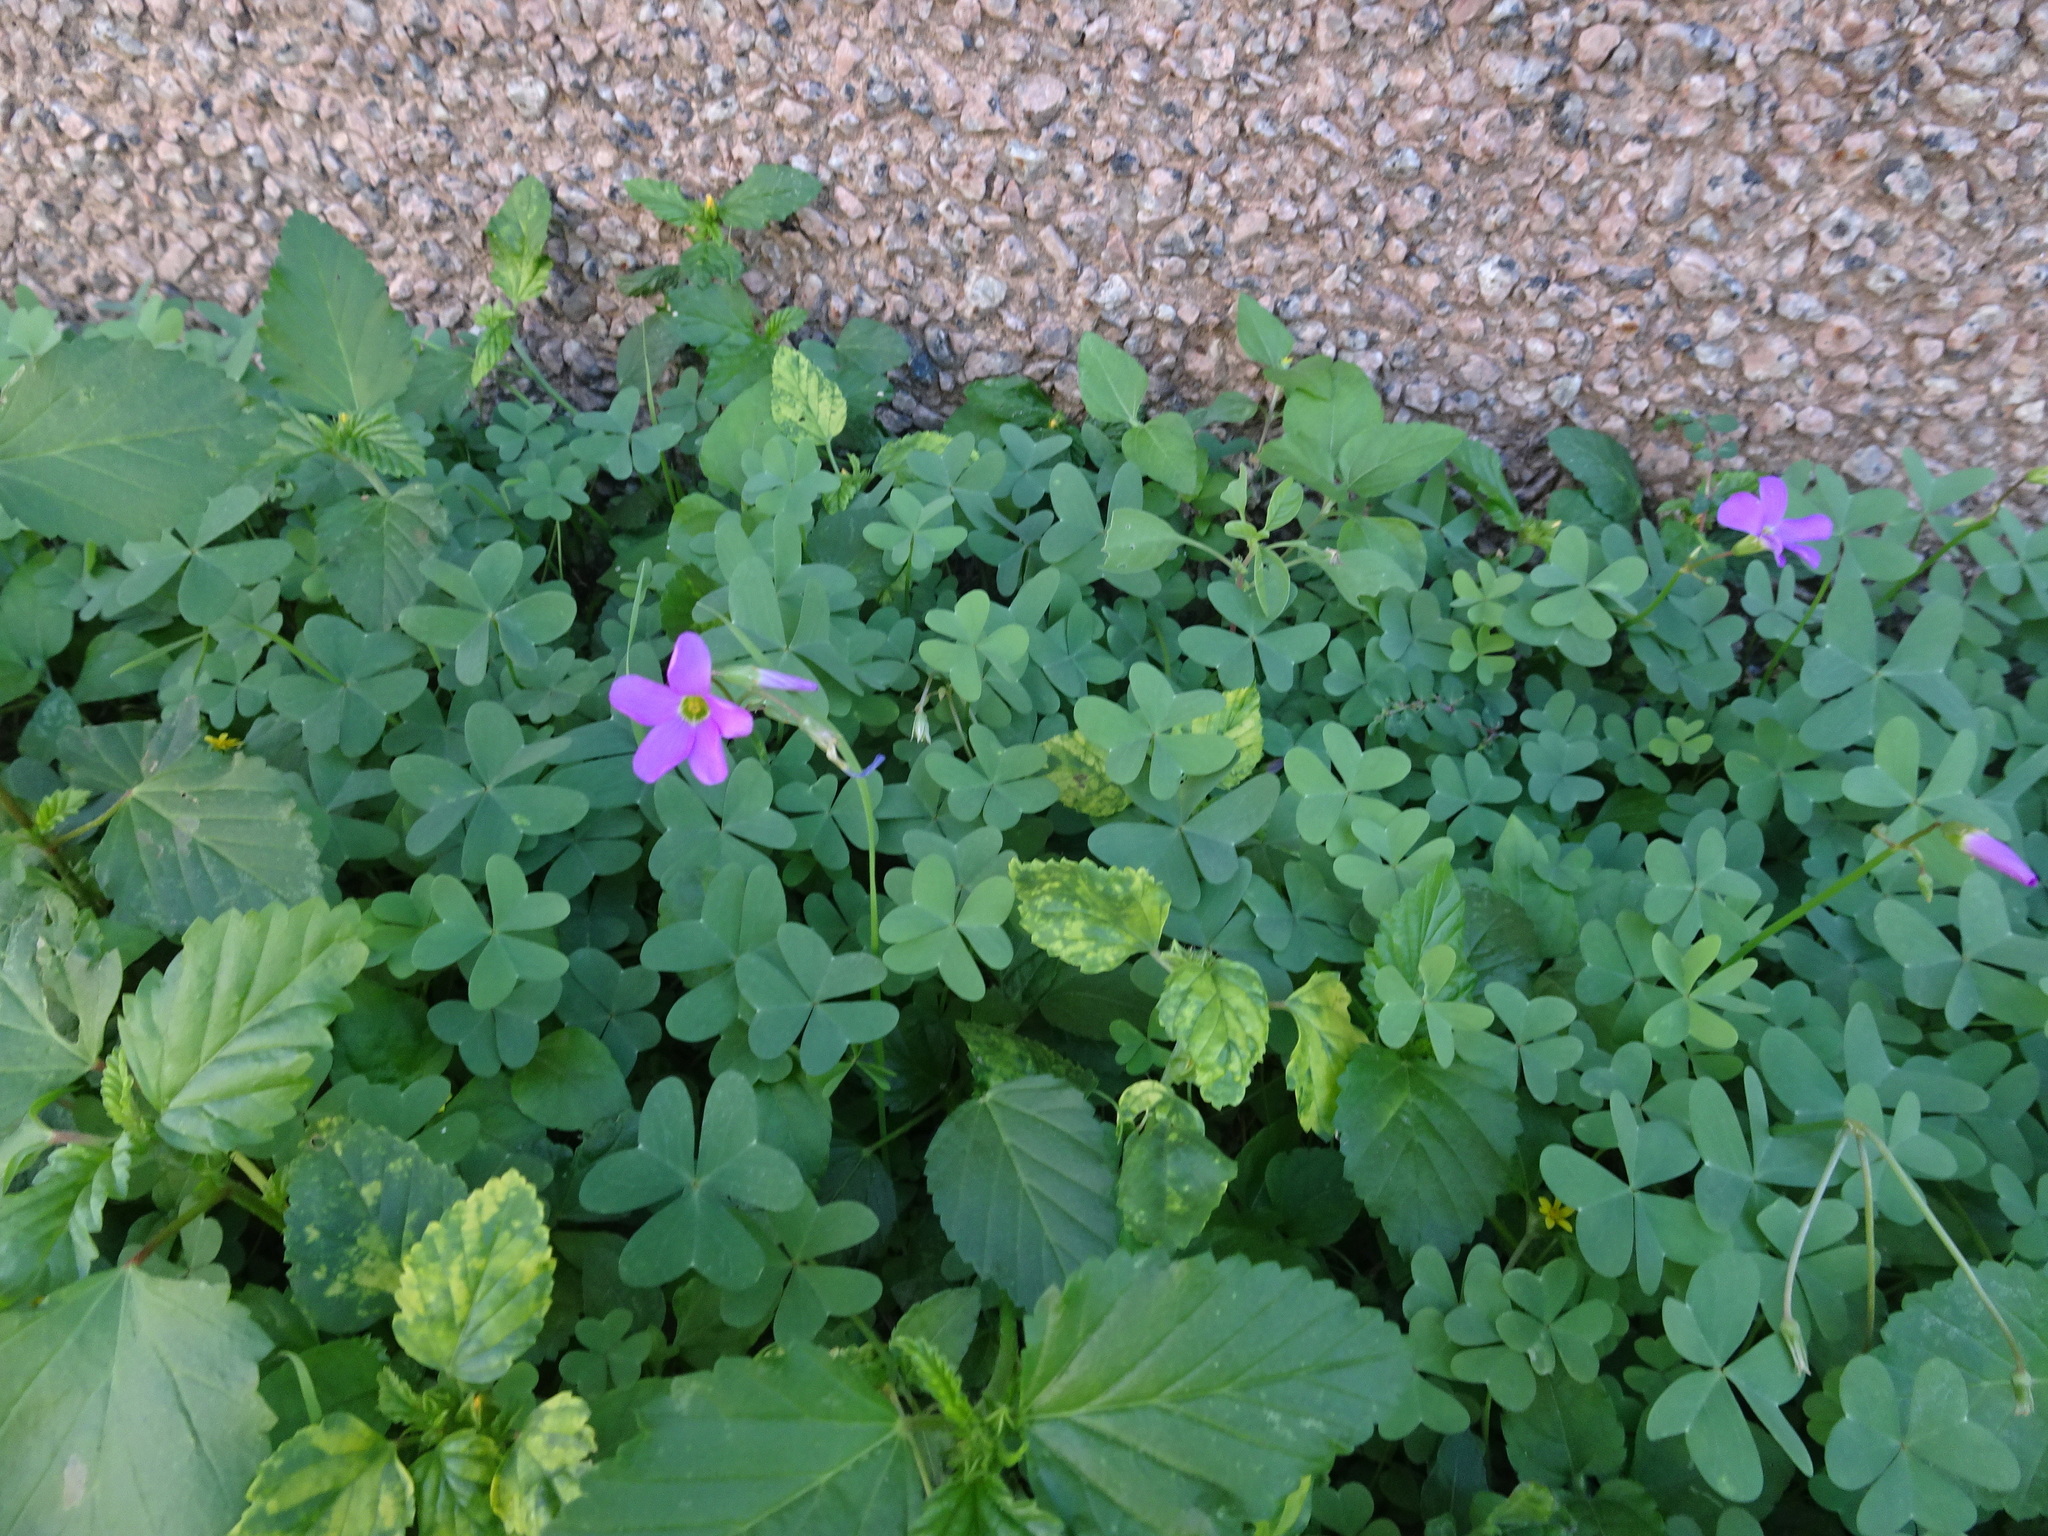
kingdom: Plantae
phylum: Tracheophyta
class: Magnoliopsida
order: Oxalidales
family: Oxalidaceae
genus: Oxalis
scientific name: Oxalis drummondii
